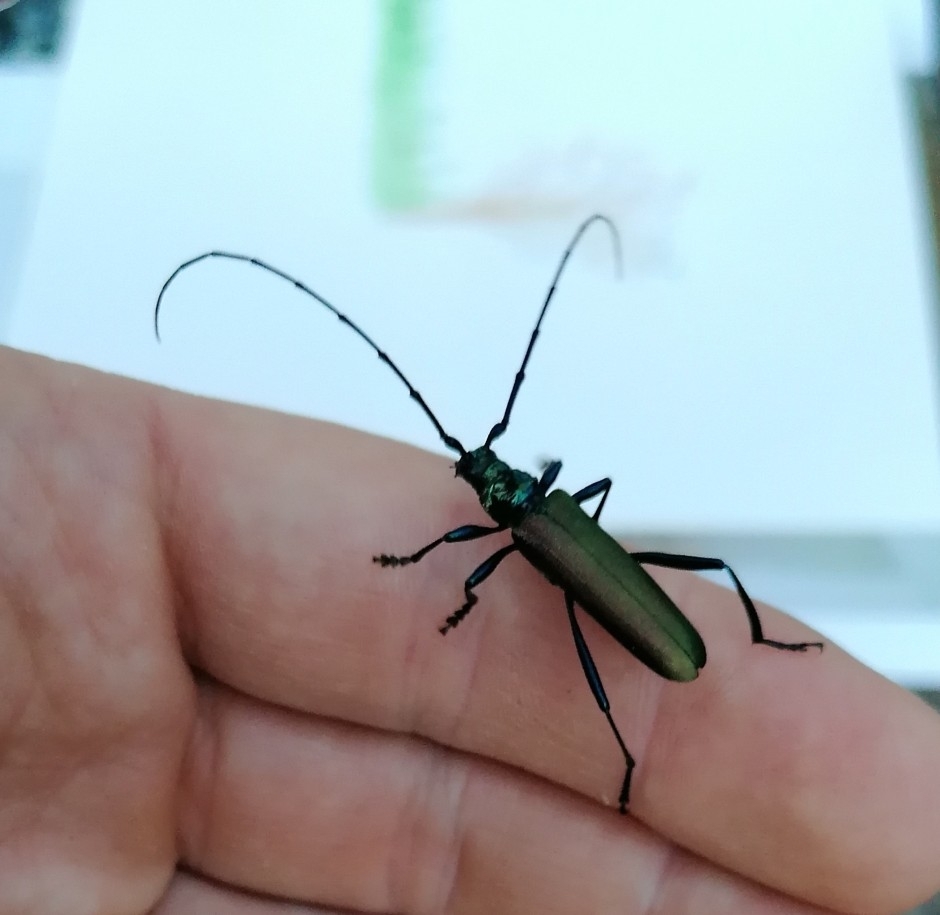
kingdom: Animalia
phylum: Arthropoda
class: Insecta
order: Coleoptera
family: Cerambycidae
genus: Aromia
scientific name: Aromia moschata
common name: Musk beetle
